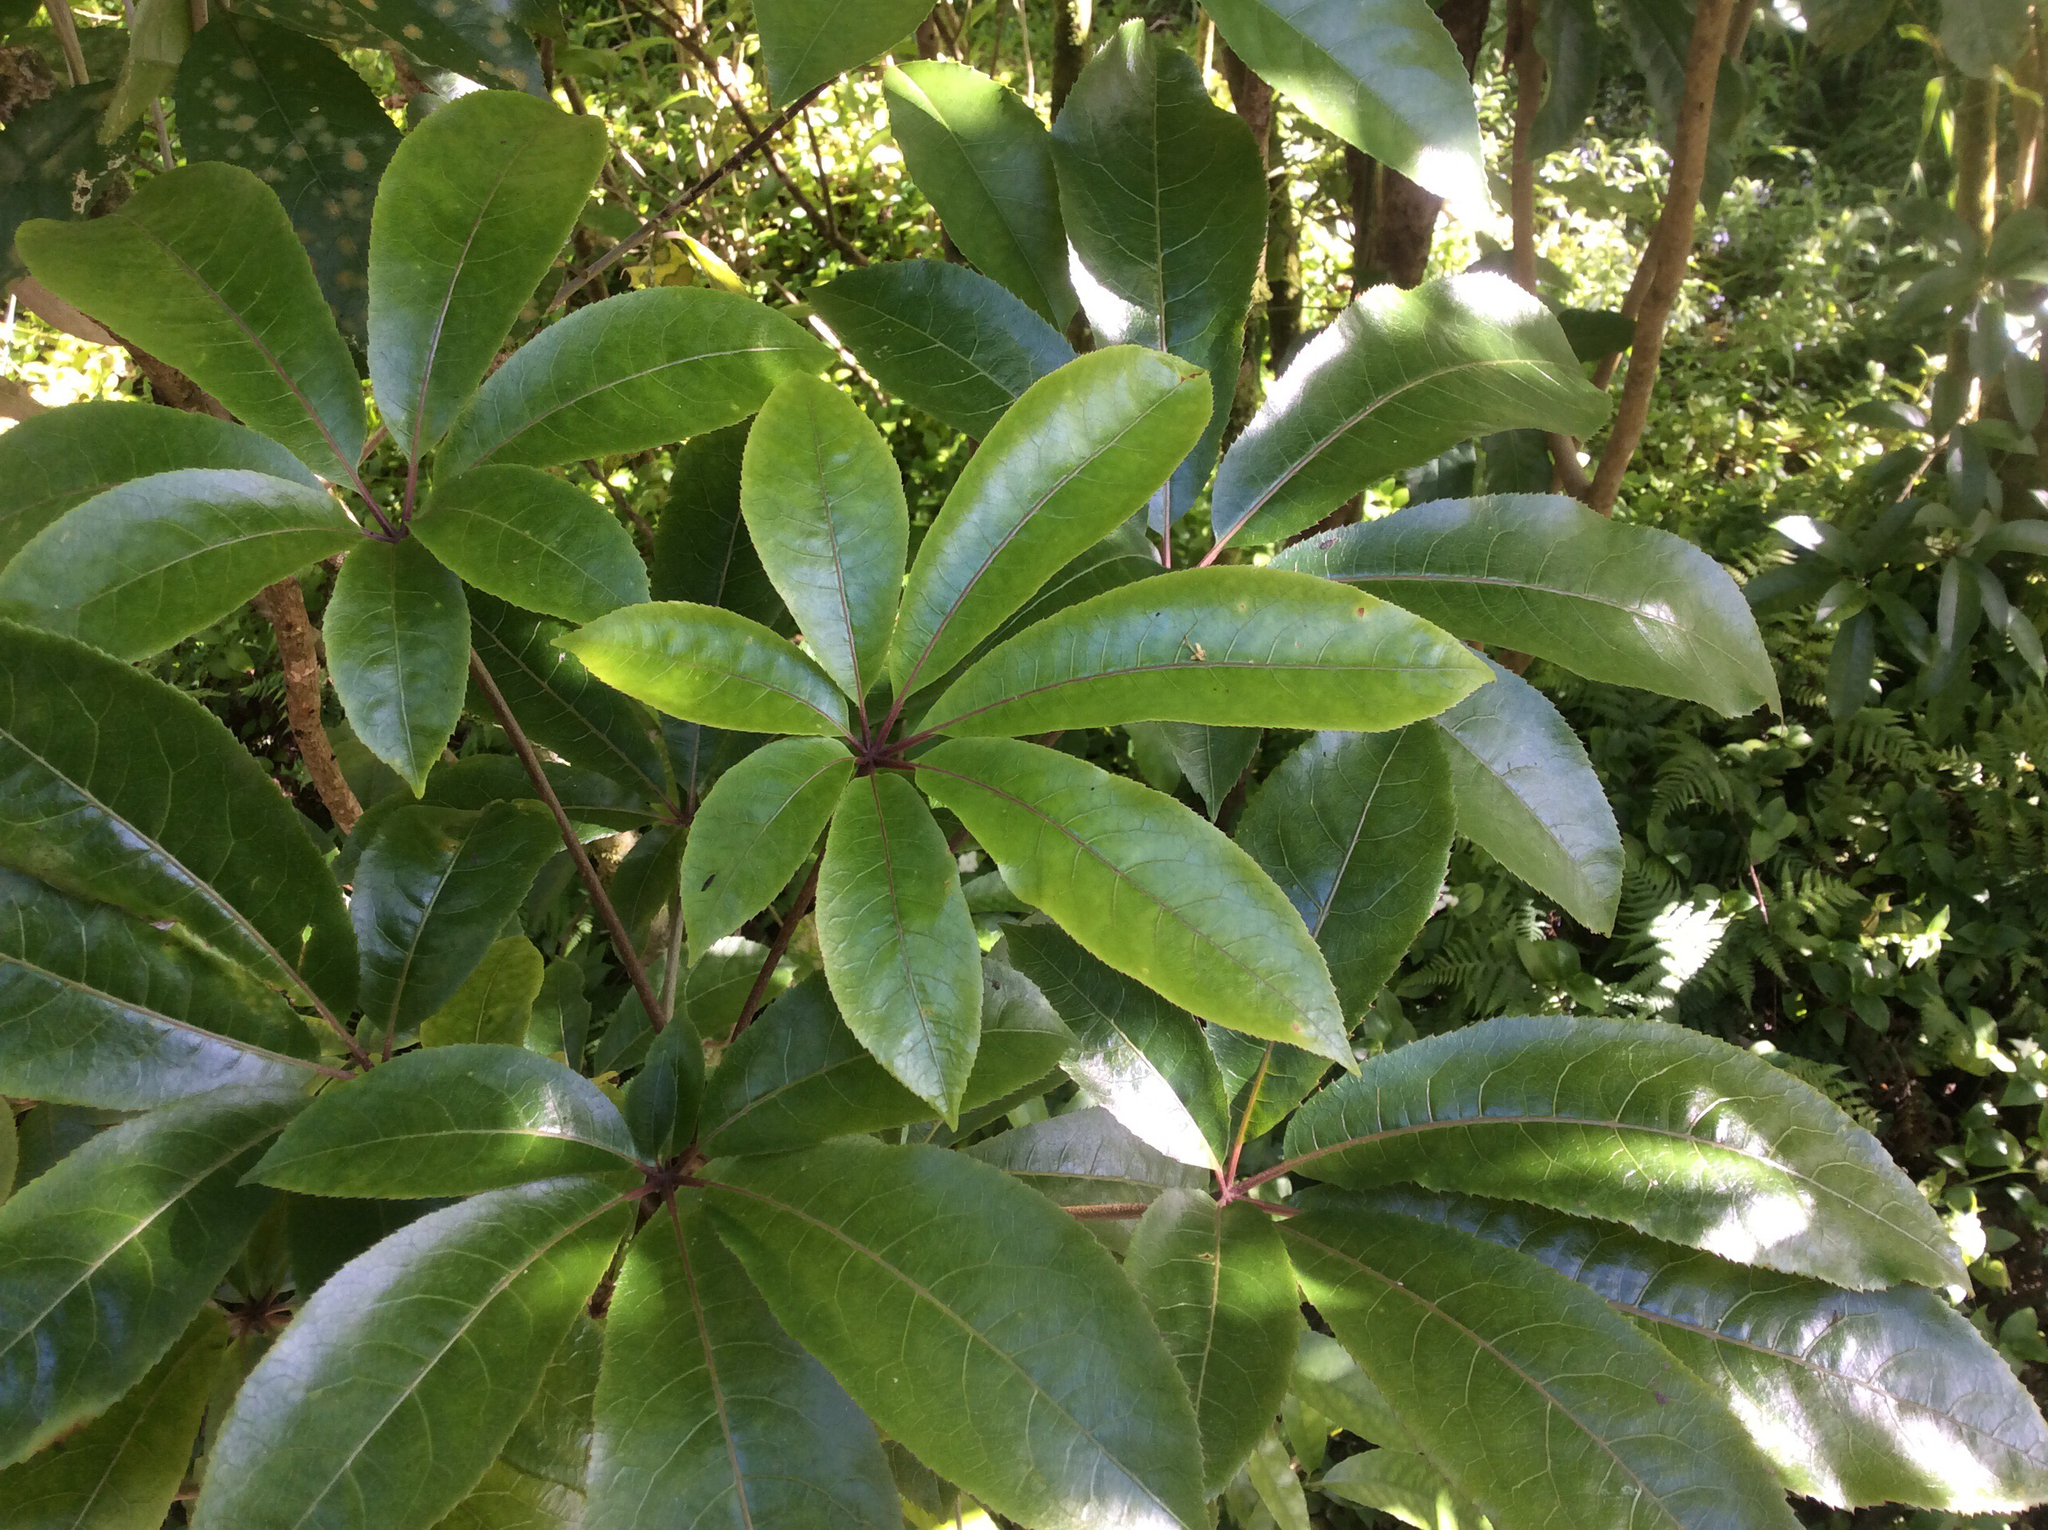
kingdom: Plantae
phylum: Tracheophyta
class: Magnoliopsida
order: Apiales
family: Araliaceae
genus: Schefflera
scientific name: Schefflera digitata
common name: Pate
